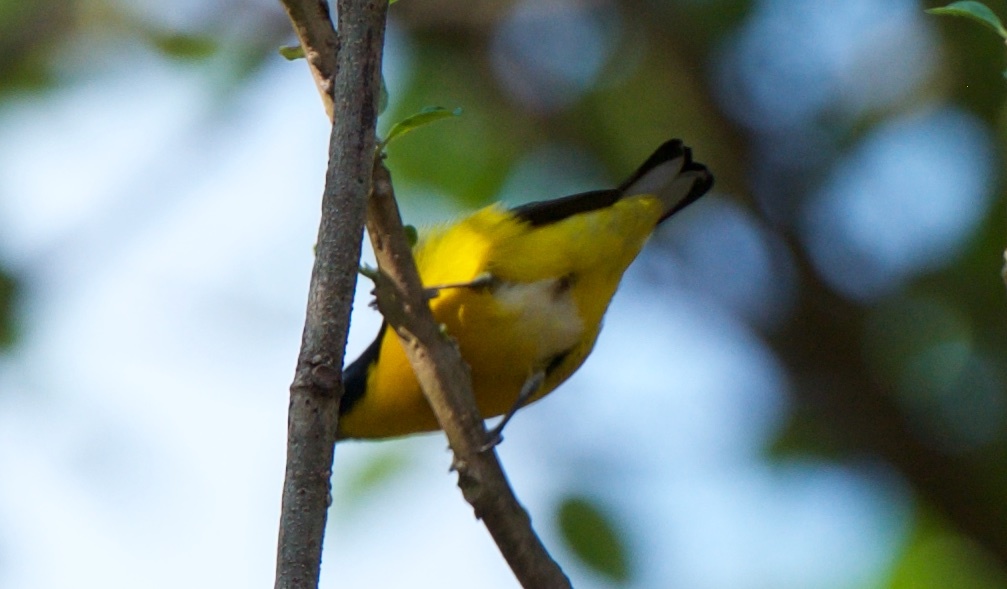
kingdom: Animalia
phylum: Chordata
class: Aves
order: Passeriformes
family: Fringillidae
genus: Euphonia
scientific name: Euphonia hirundinacea
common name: Yellow-throated euphonia
